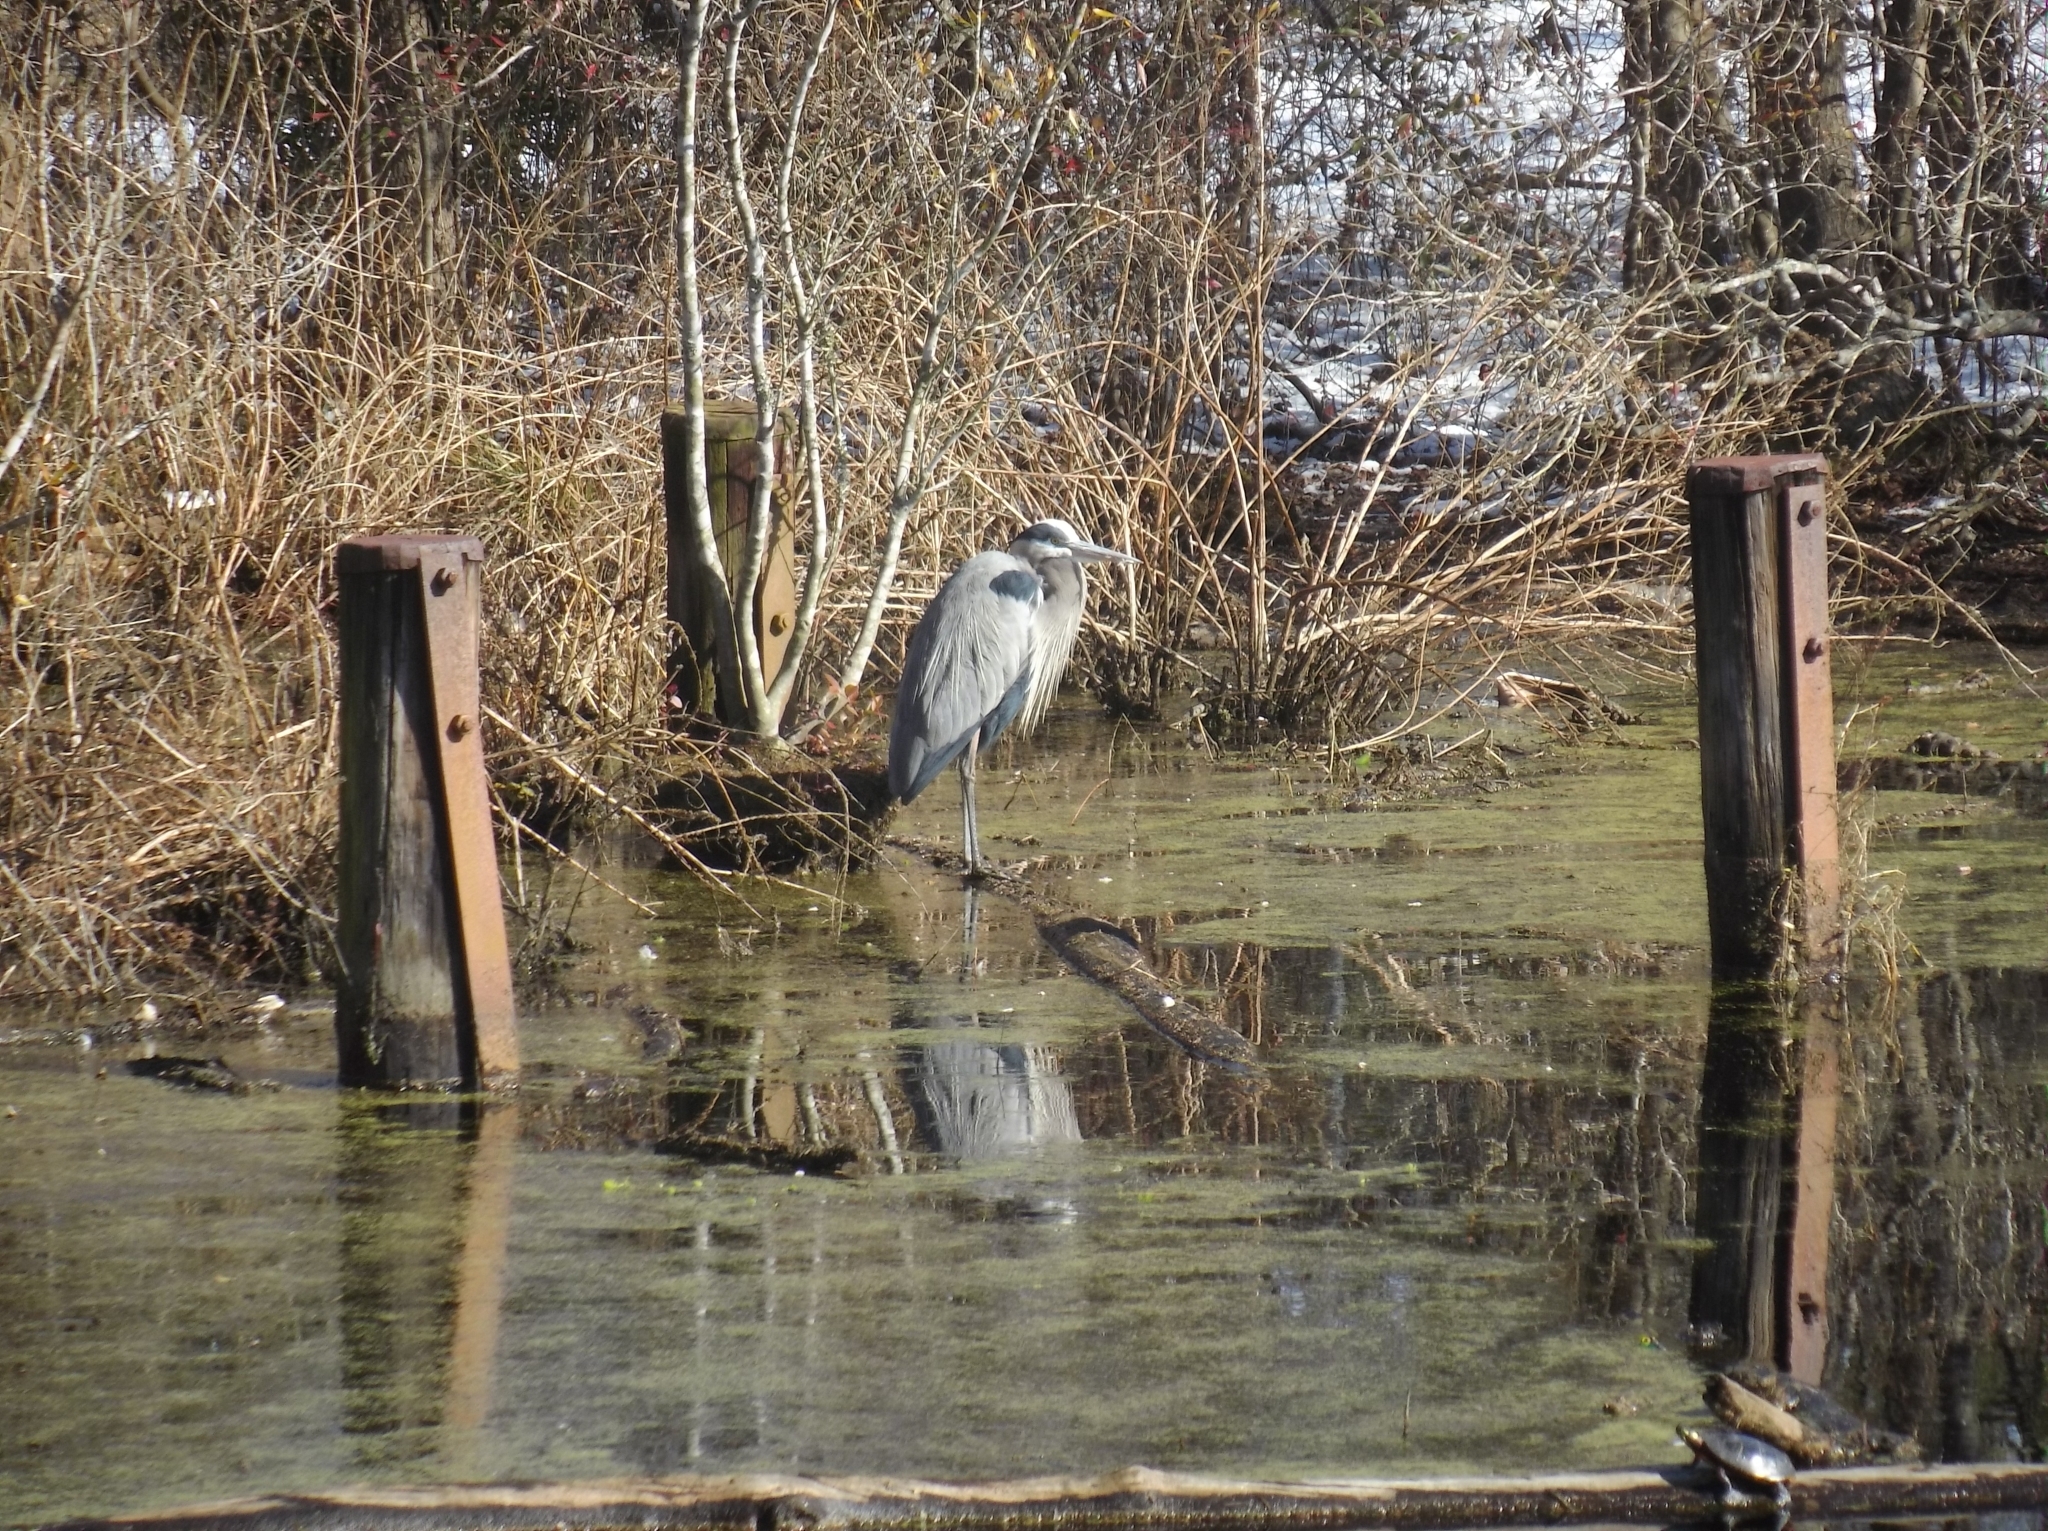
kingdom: Animalia
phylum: Chordata
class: Aves
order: Pelecaniformes
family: Ardeidae
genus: Ardea
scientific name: Ardea herodias
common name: Great blue heron
